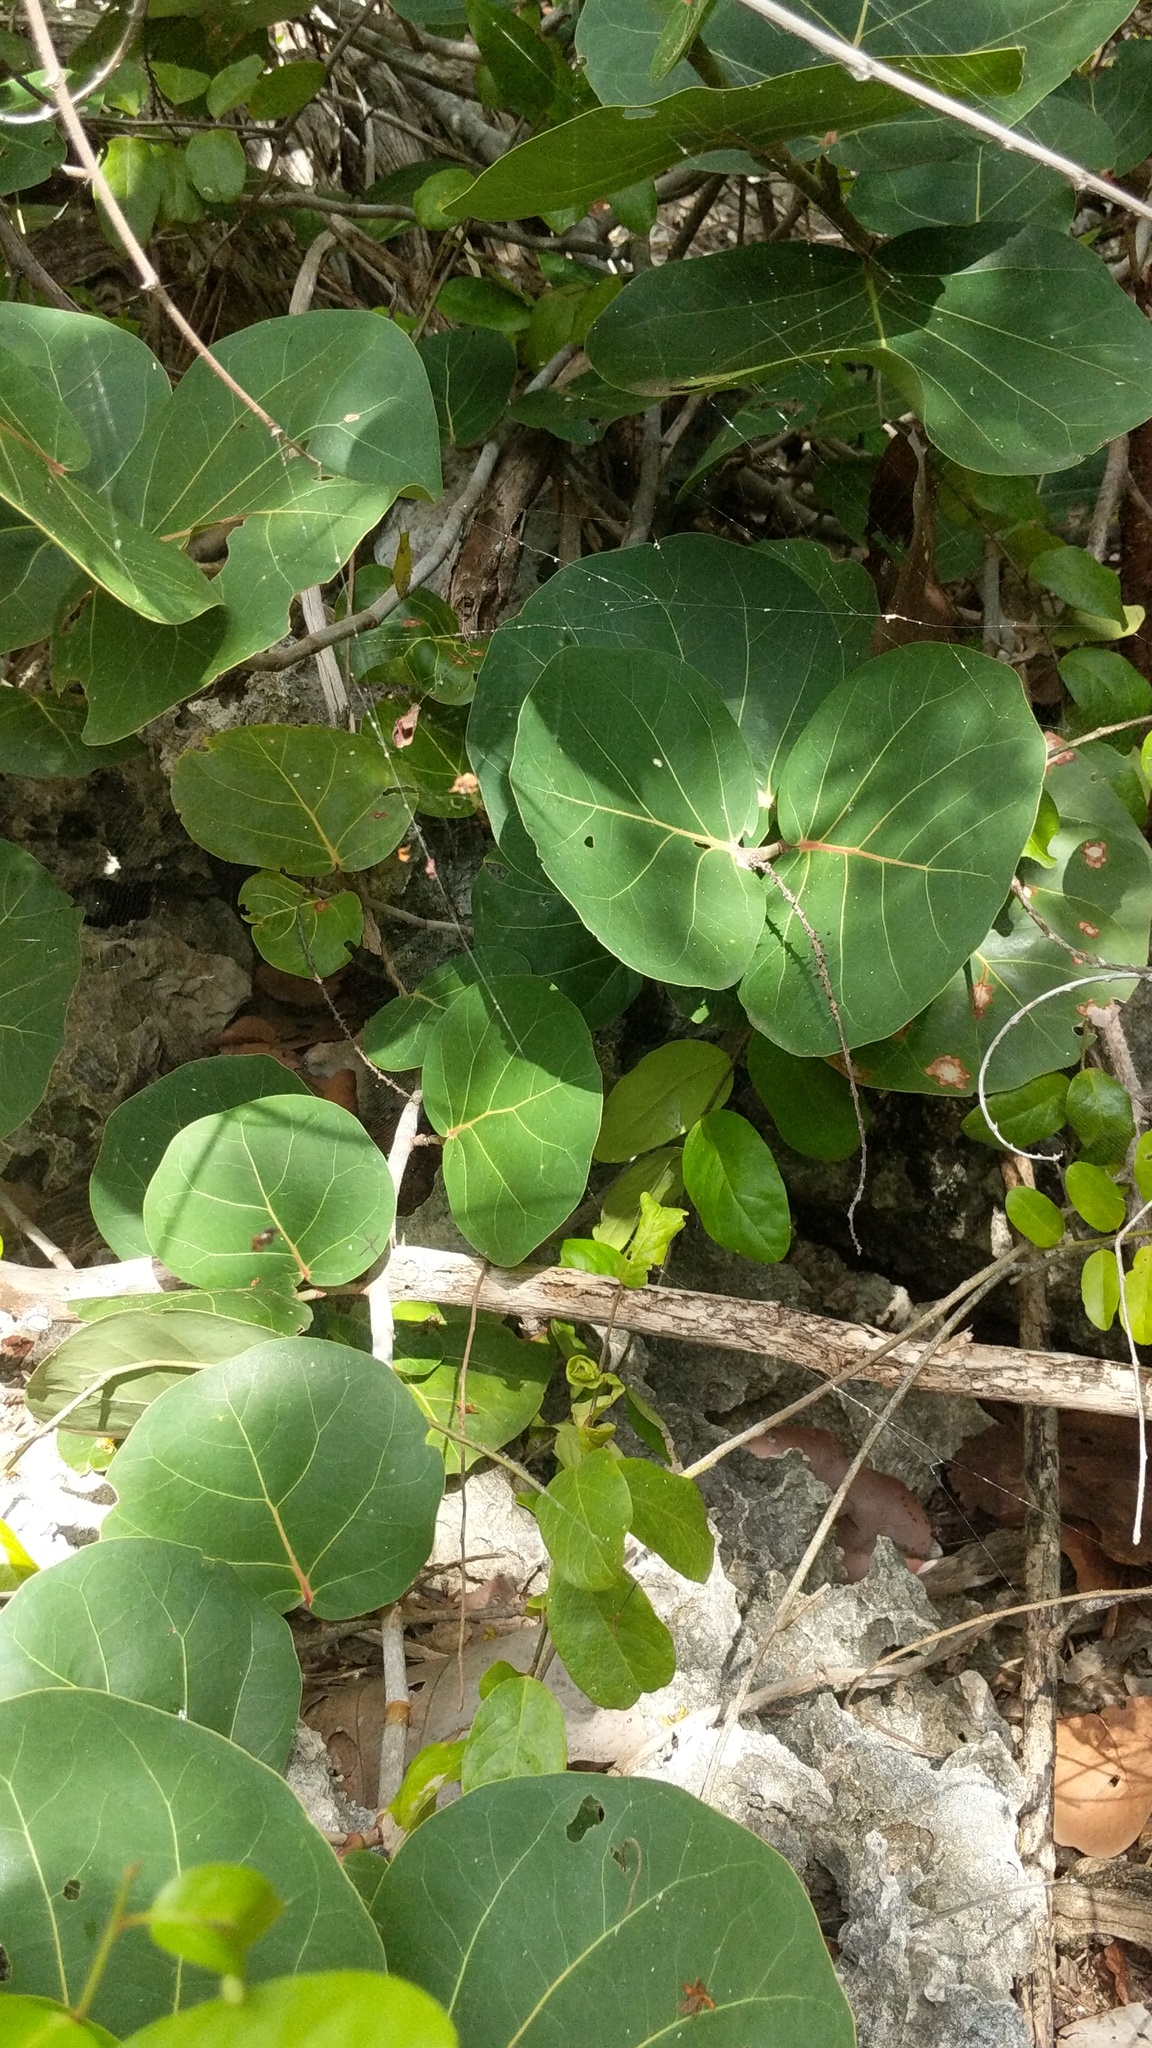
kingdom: Plantae
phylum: Tracheophyta
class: Magnoliopsida
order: Caryophyllales
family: Polygonaceae
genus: Coccoloba
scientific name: Coccoloba uvifera
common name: Seagrape
